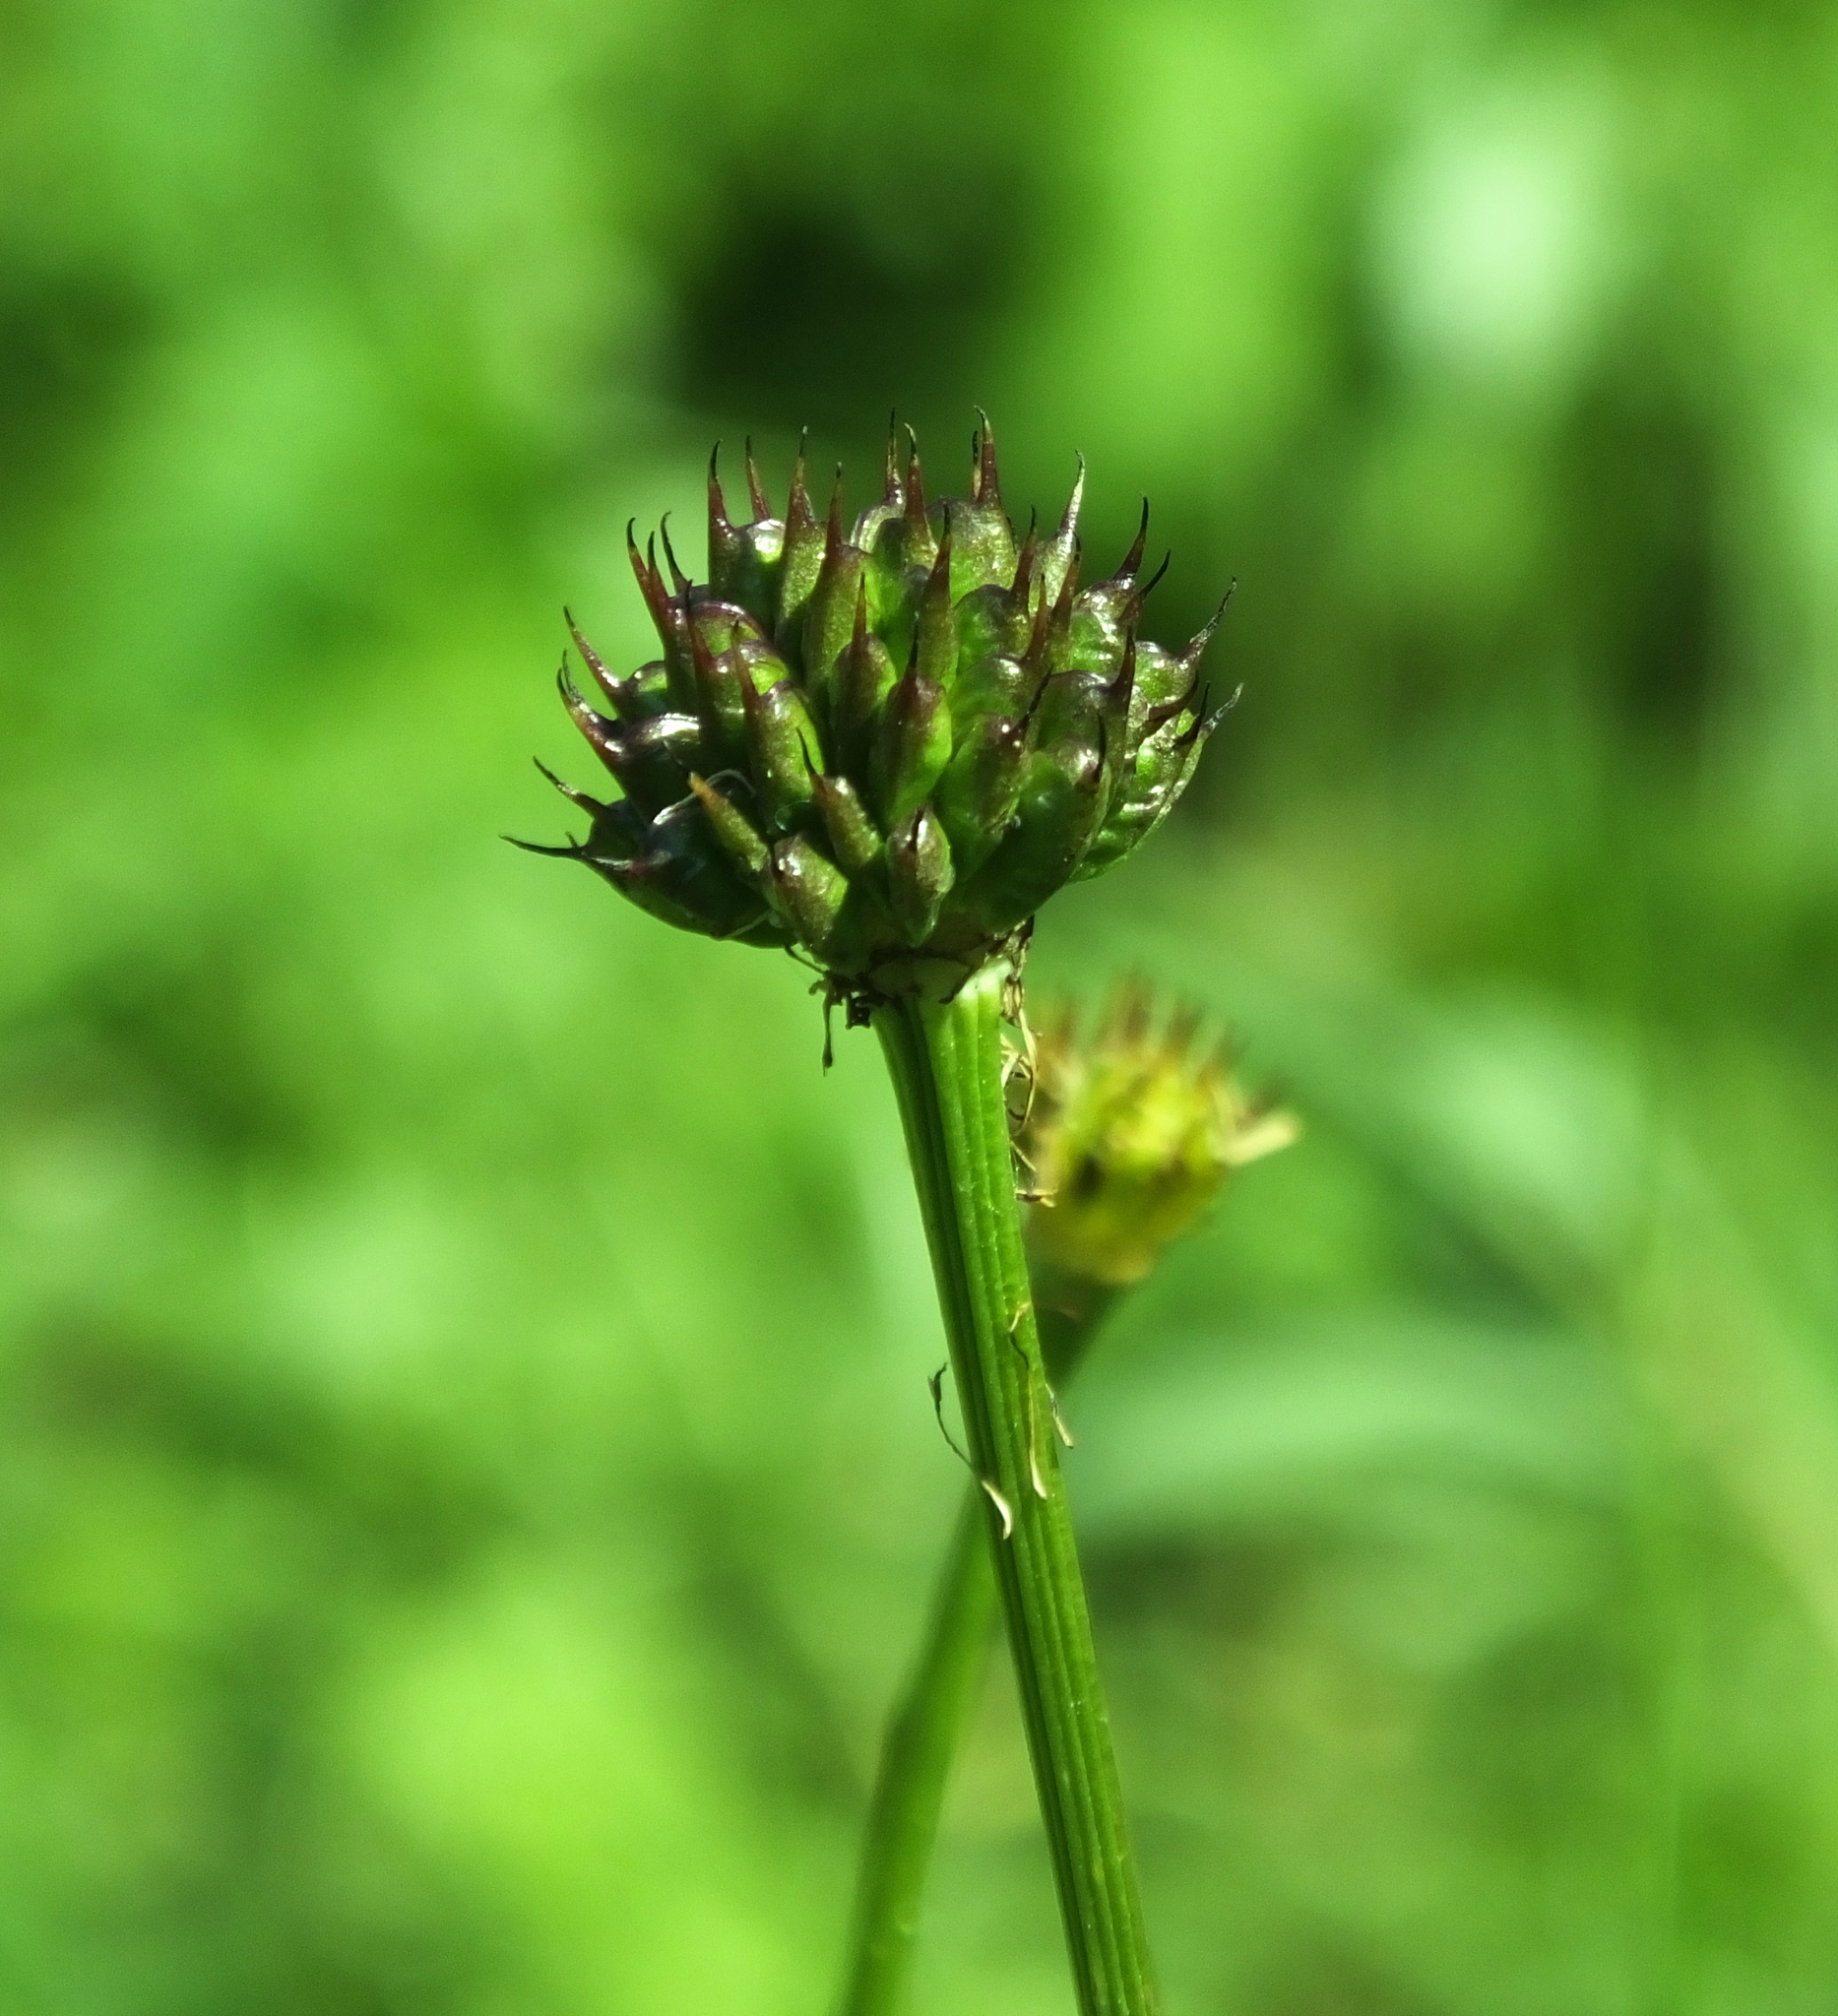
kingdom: Plantae
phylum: Tracheophyta
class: Magnoliopsida
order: Ranunculales
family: Ranunculaceae
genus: Trollius
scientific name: Trollius europaeus
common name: European globeflower
